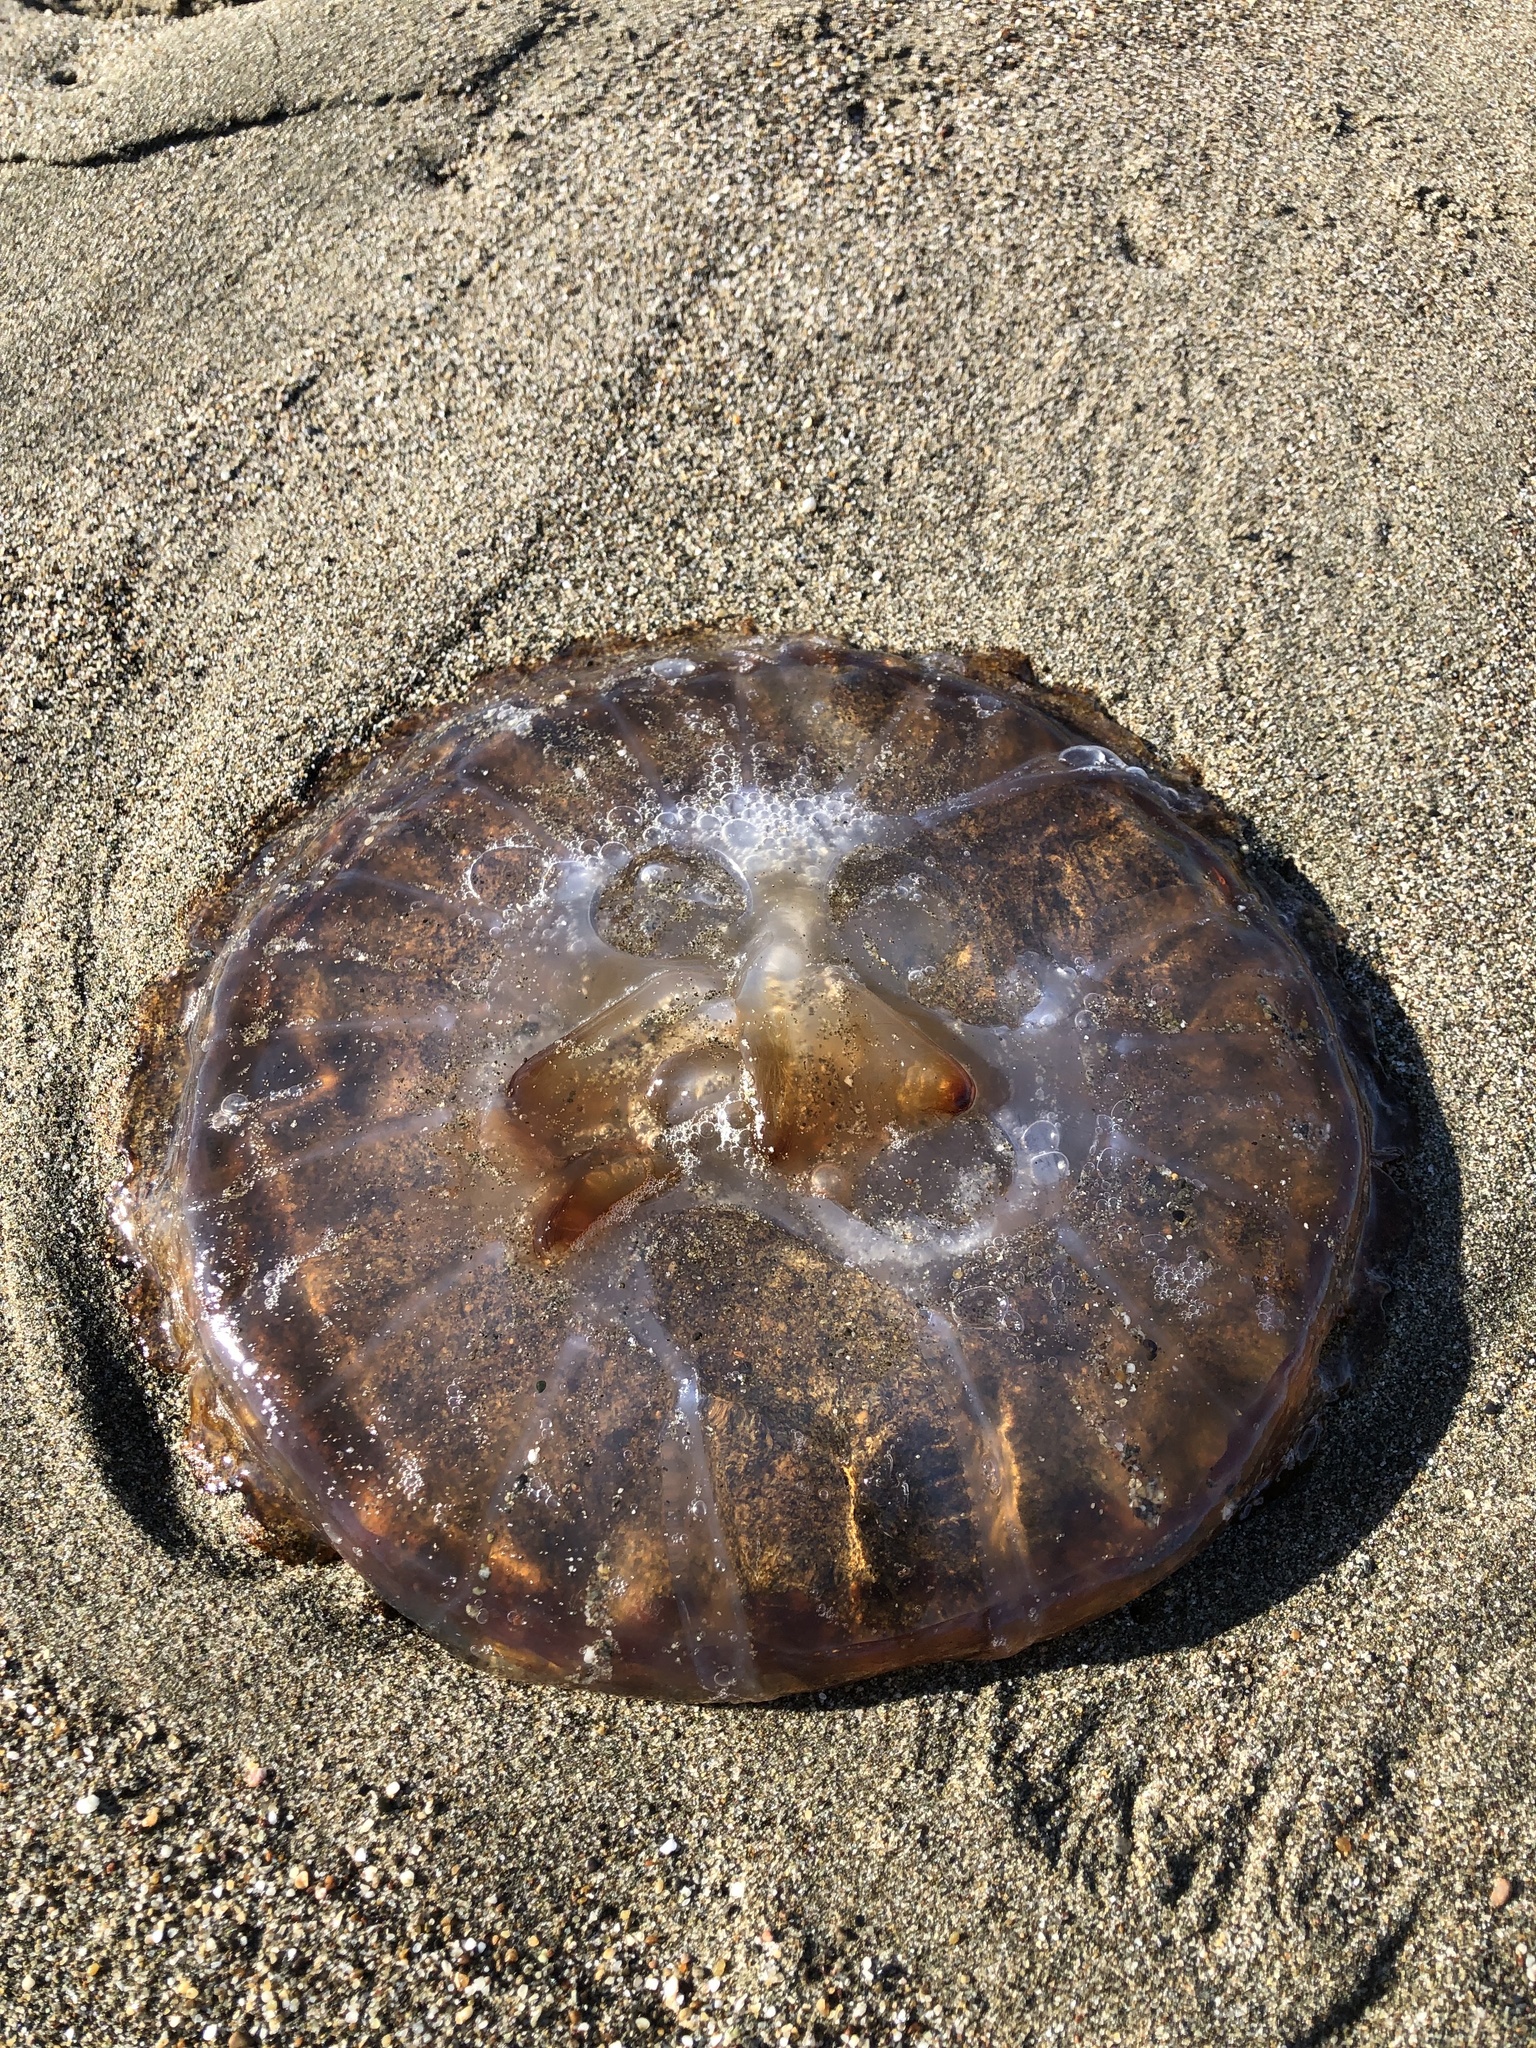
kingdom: Animalia
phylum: Cnidaria
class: Scyphozoa
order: Semaeostomeae
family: Pelagiidae
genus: Chrysaora
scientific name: Chrysaora fuscescens
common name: Sea nettle
